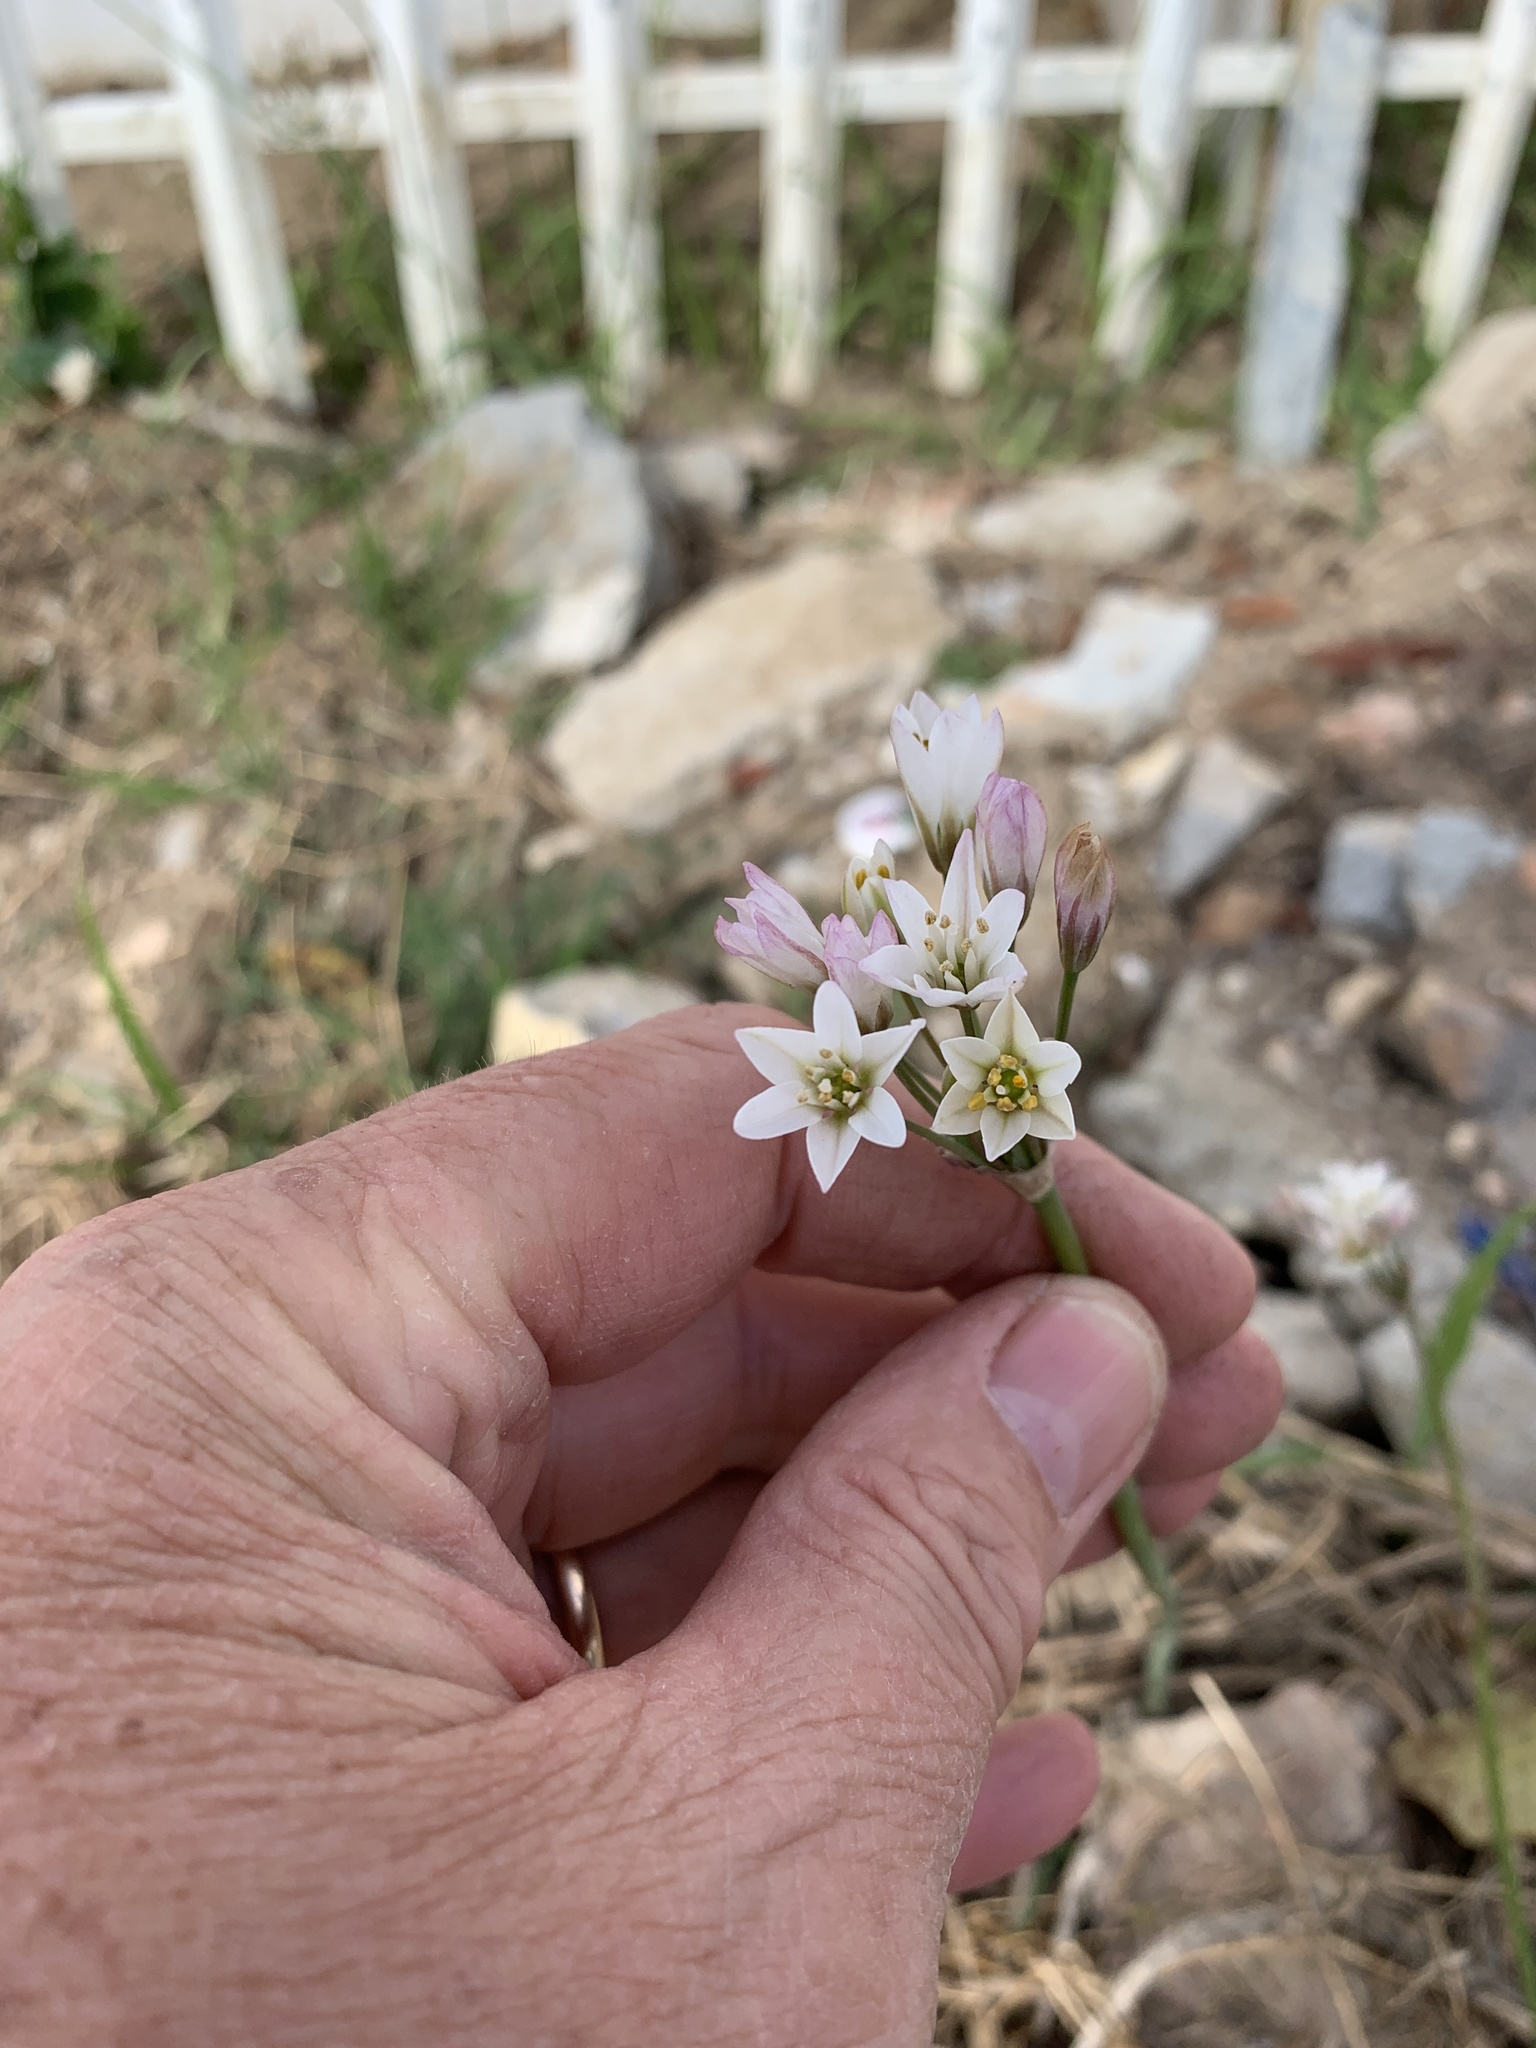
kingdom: Plantae
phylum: Tracheophyta
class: Liliopsida
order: Asparagales
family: Amaryllidaceae
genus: Nothoscordum
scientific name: Nothoscordum gracile
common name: Slender false garlic
